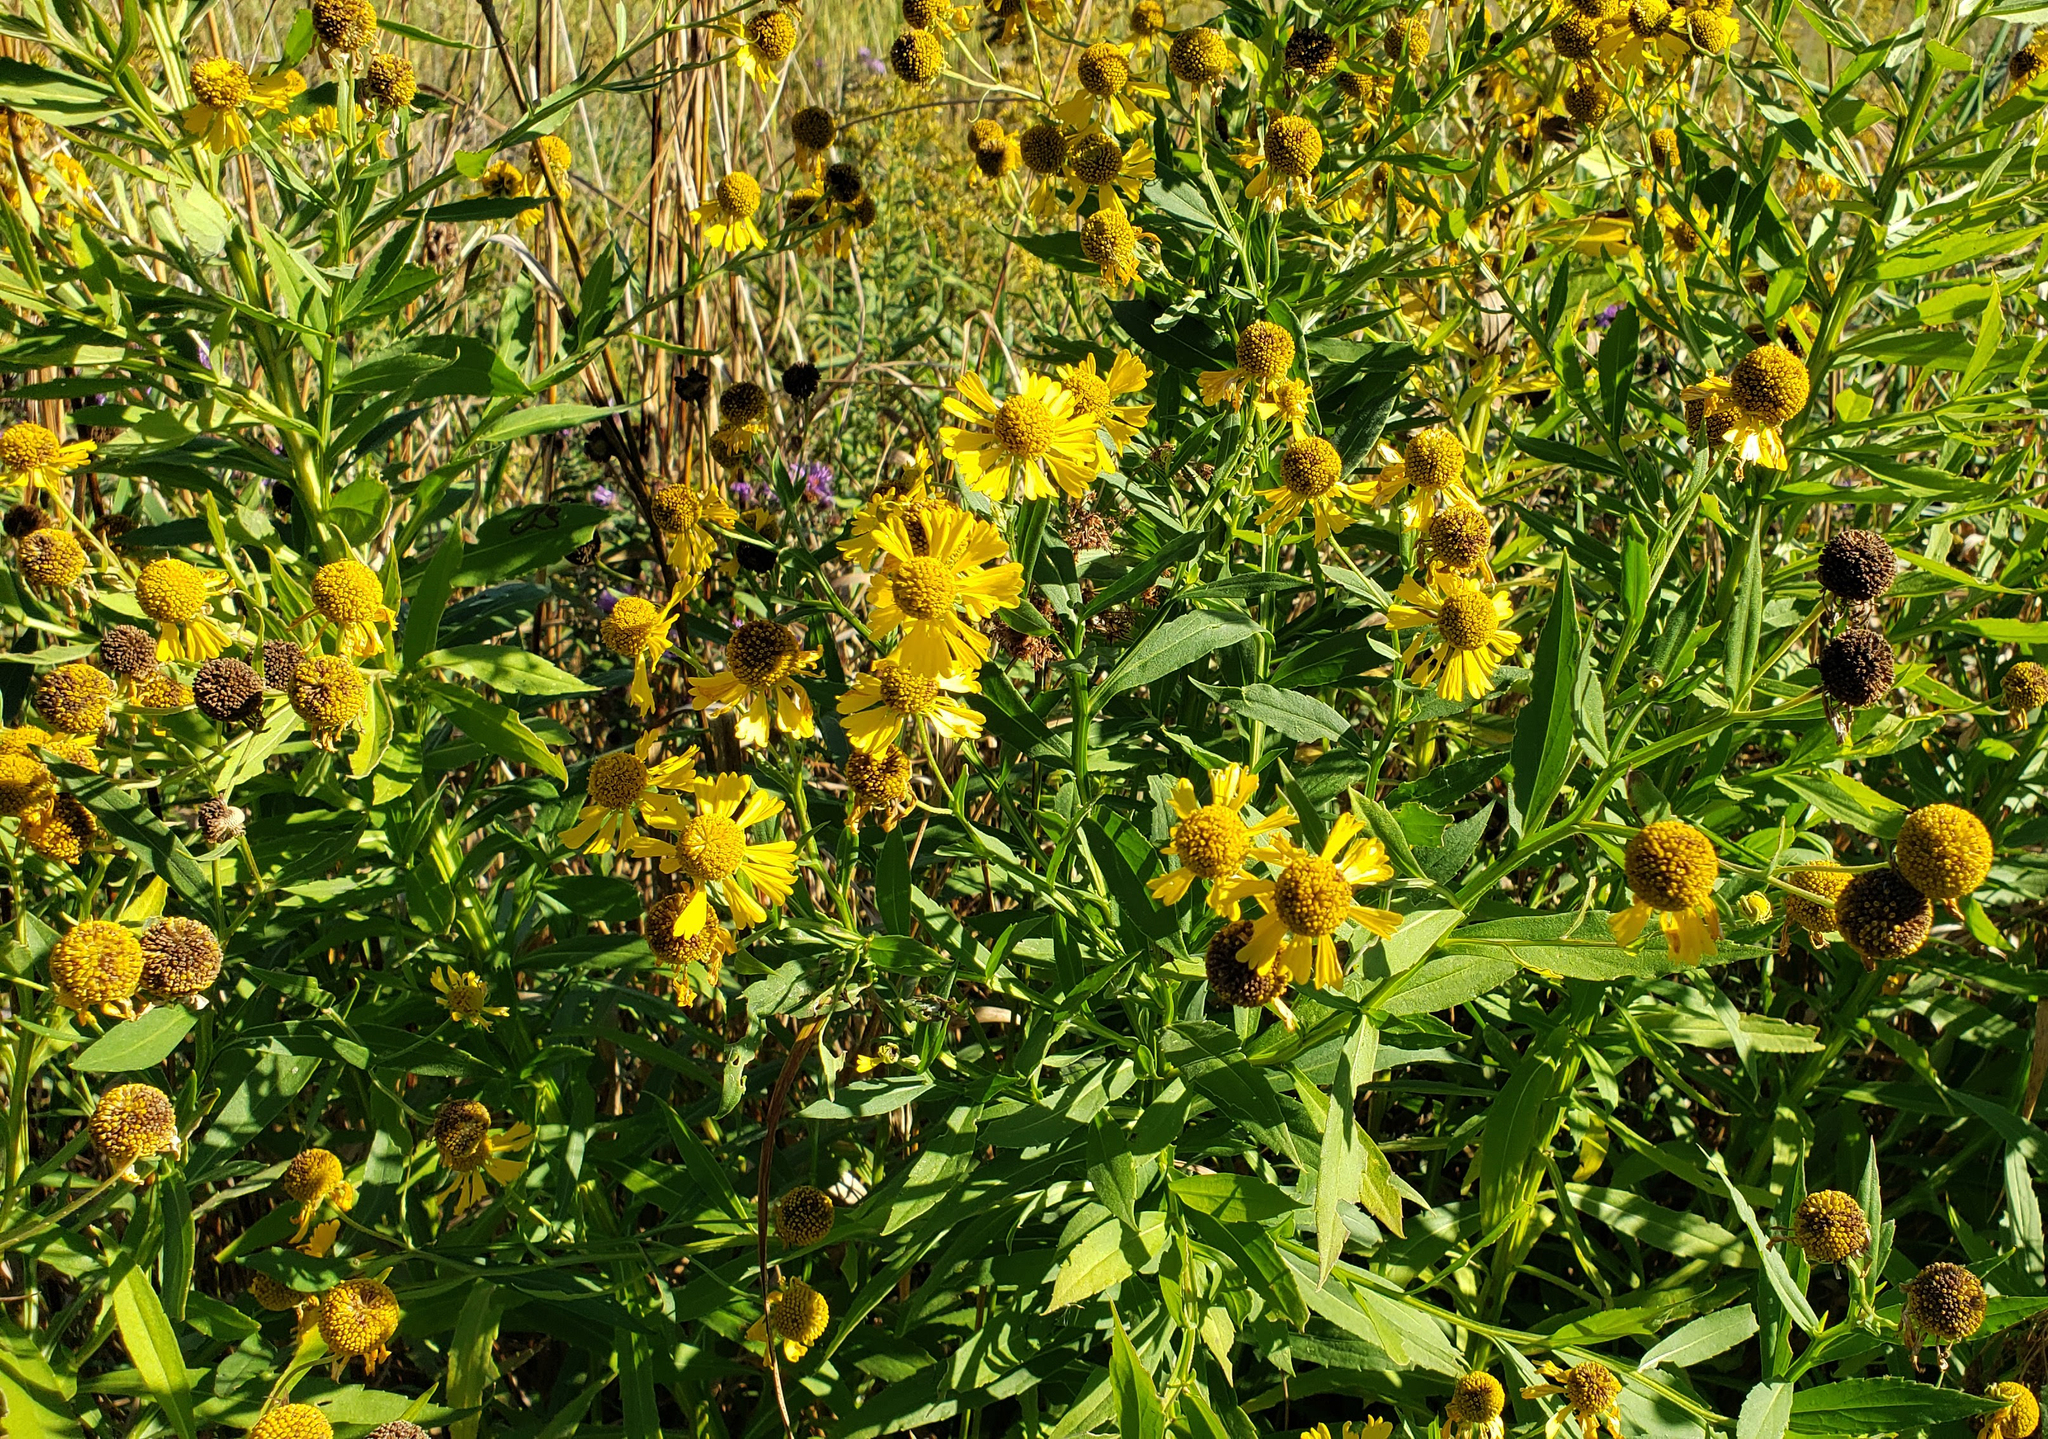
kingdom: Plantae
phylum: Tracheophyta
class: Magnoliopsida
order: Asterales
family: Asteraceae
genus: Helenium
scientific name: Helenium autumnale
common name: Sneezeweed
